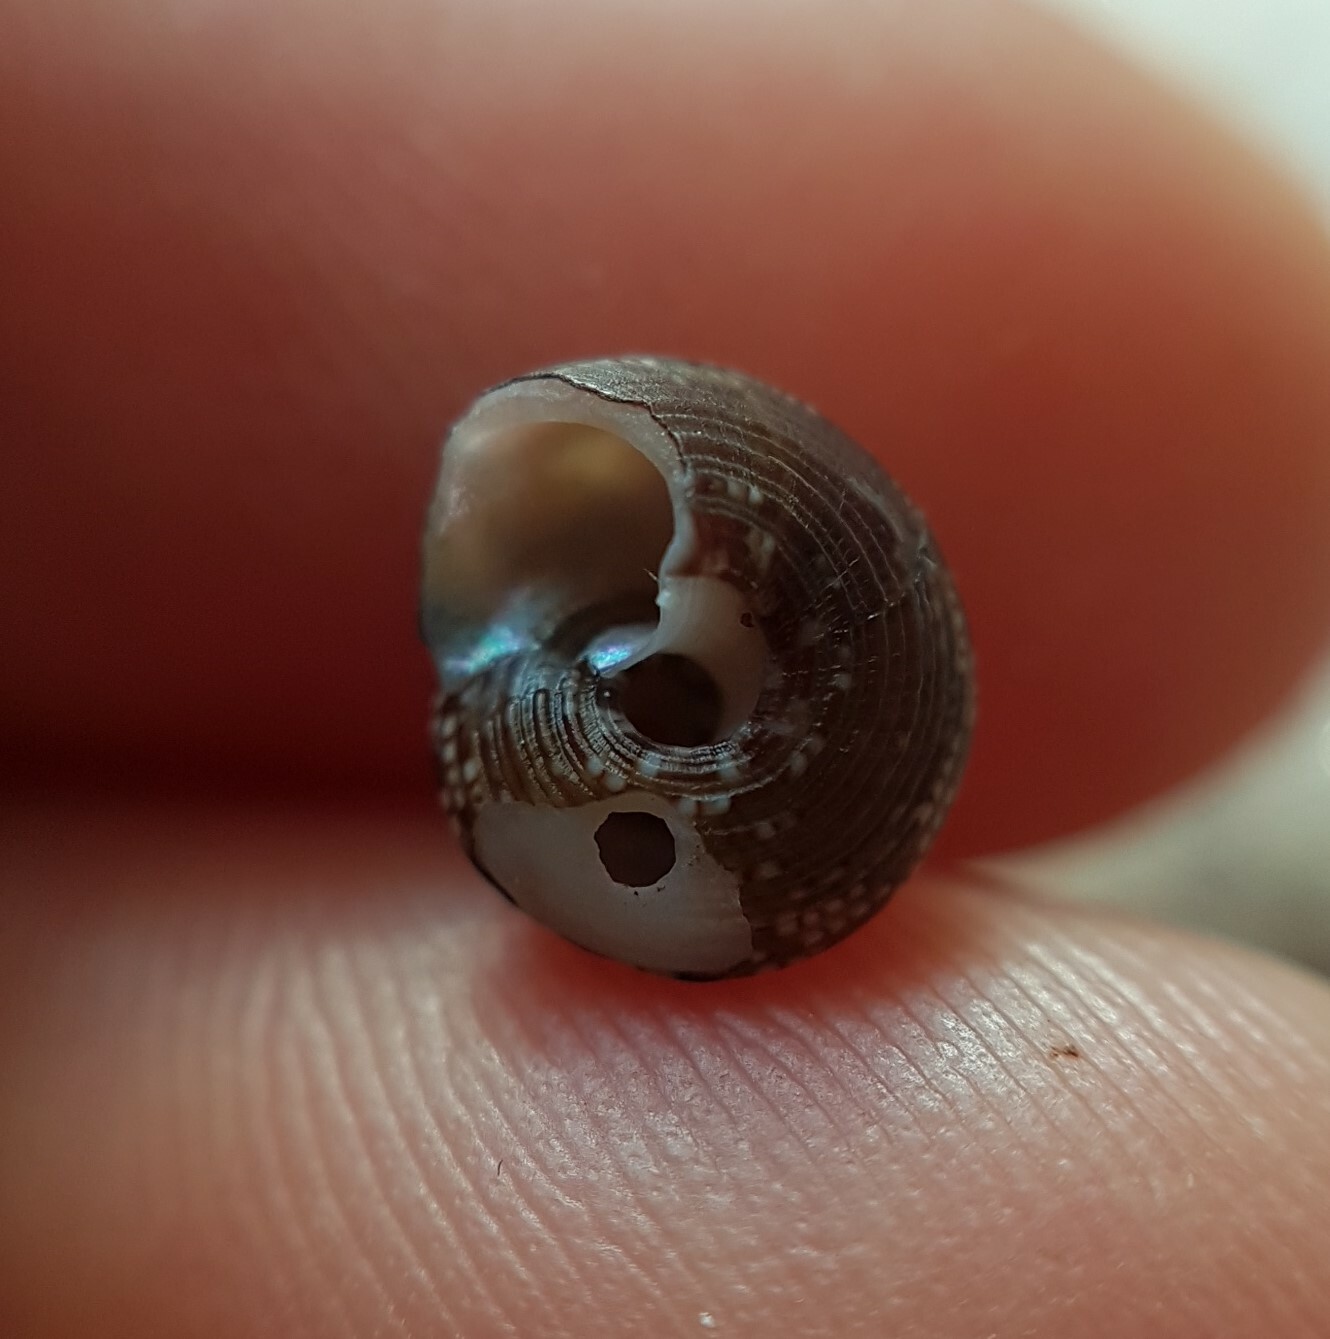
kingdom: Animalia
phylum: Mollusca
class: Gastropoda
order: Trochida
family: Trochidae
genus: Steromphala
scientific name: Steromphala umbilicaris
